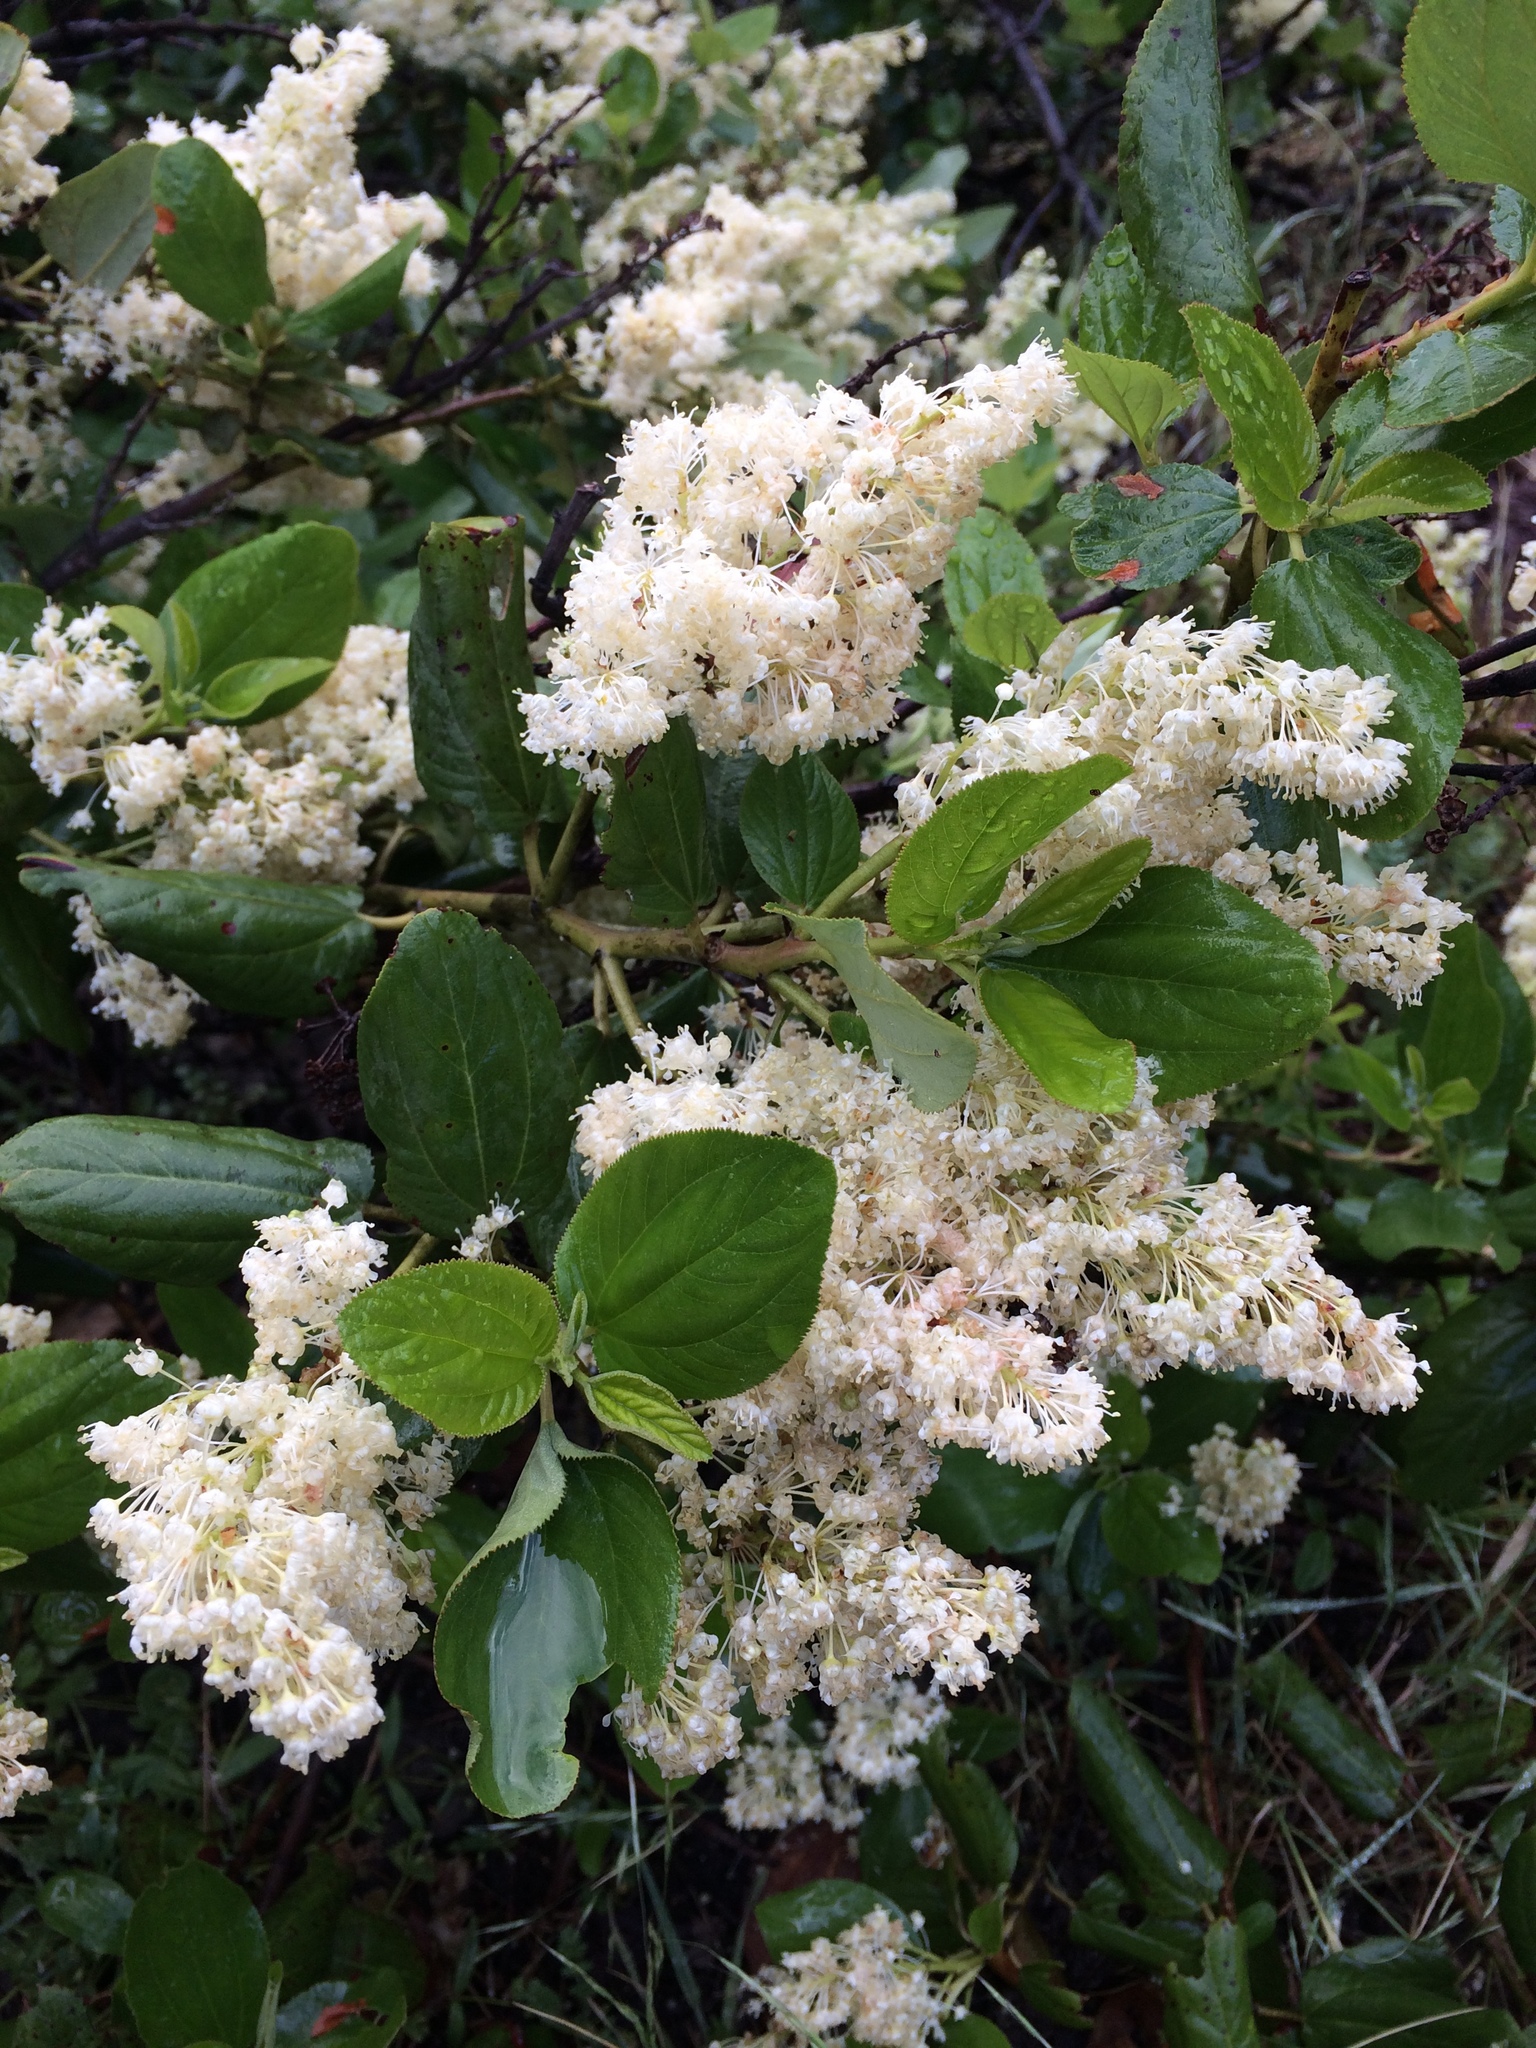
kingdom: Plantae
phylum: Tracheophyta
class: Magnoliopsida
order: Rosales
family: Rhamnaceae
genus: Ceanothus
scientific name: Ceanothus velutinus
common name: Snowbrush
